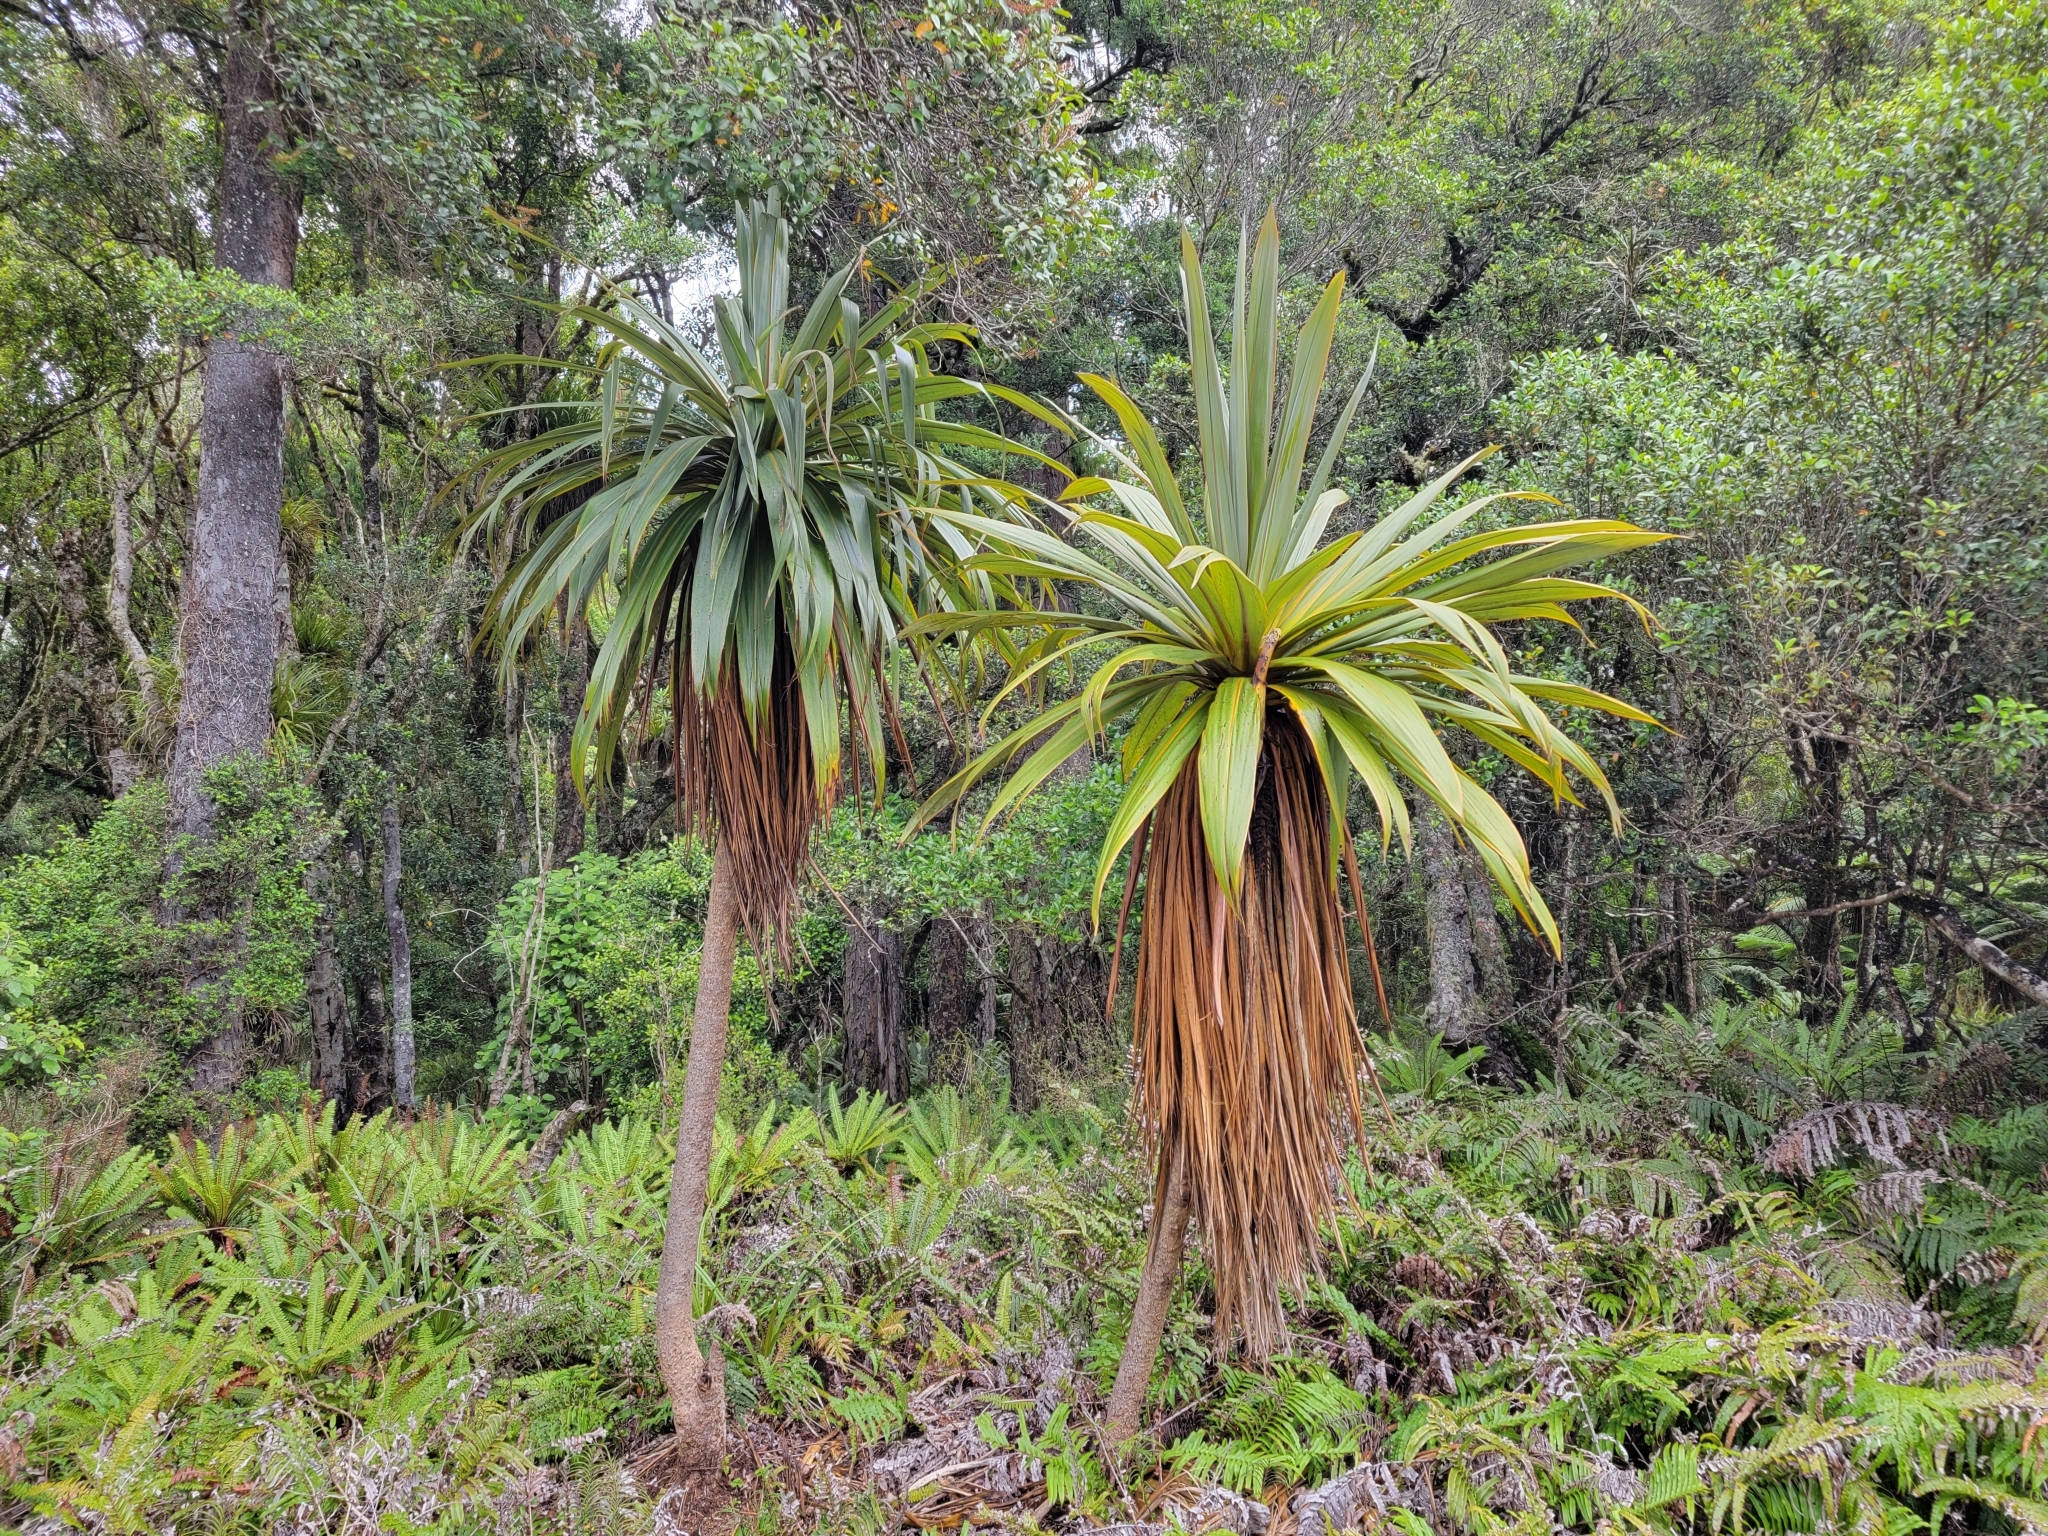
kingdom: Plantae
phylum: Tracheophyta
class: Liliopsida
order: Asparagales
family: Asparagaceae
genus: Cordyline
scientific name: Cordyline indivisa
